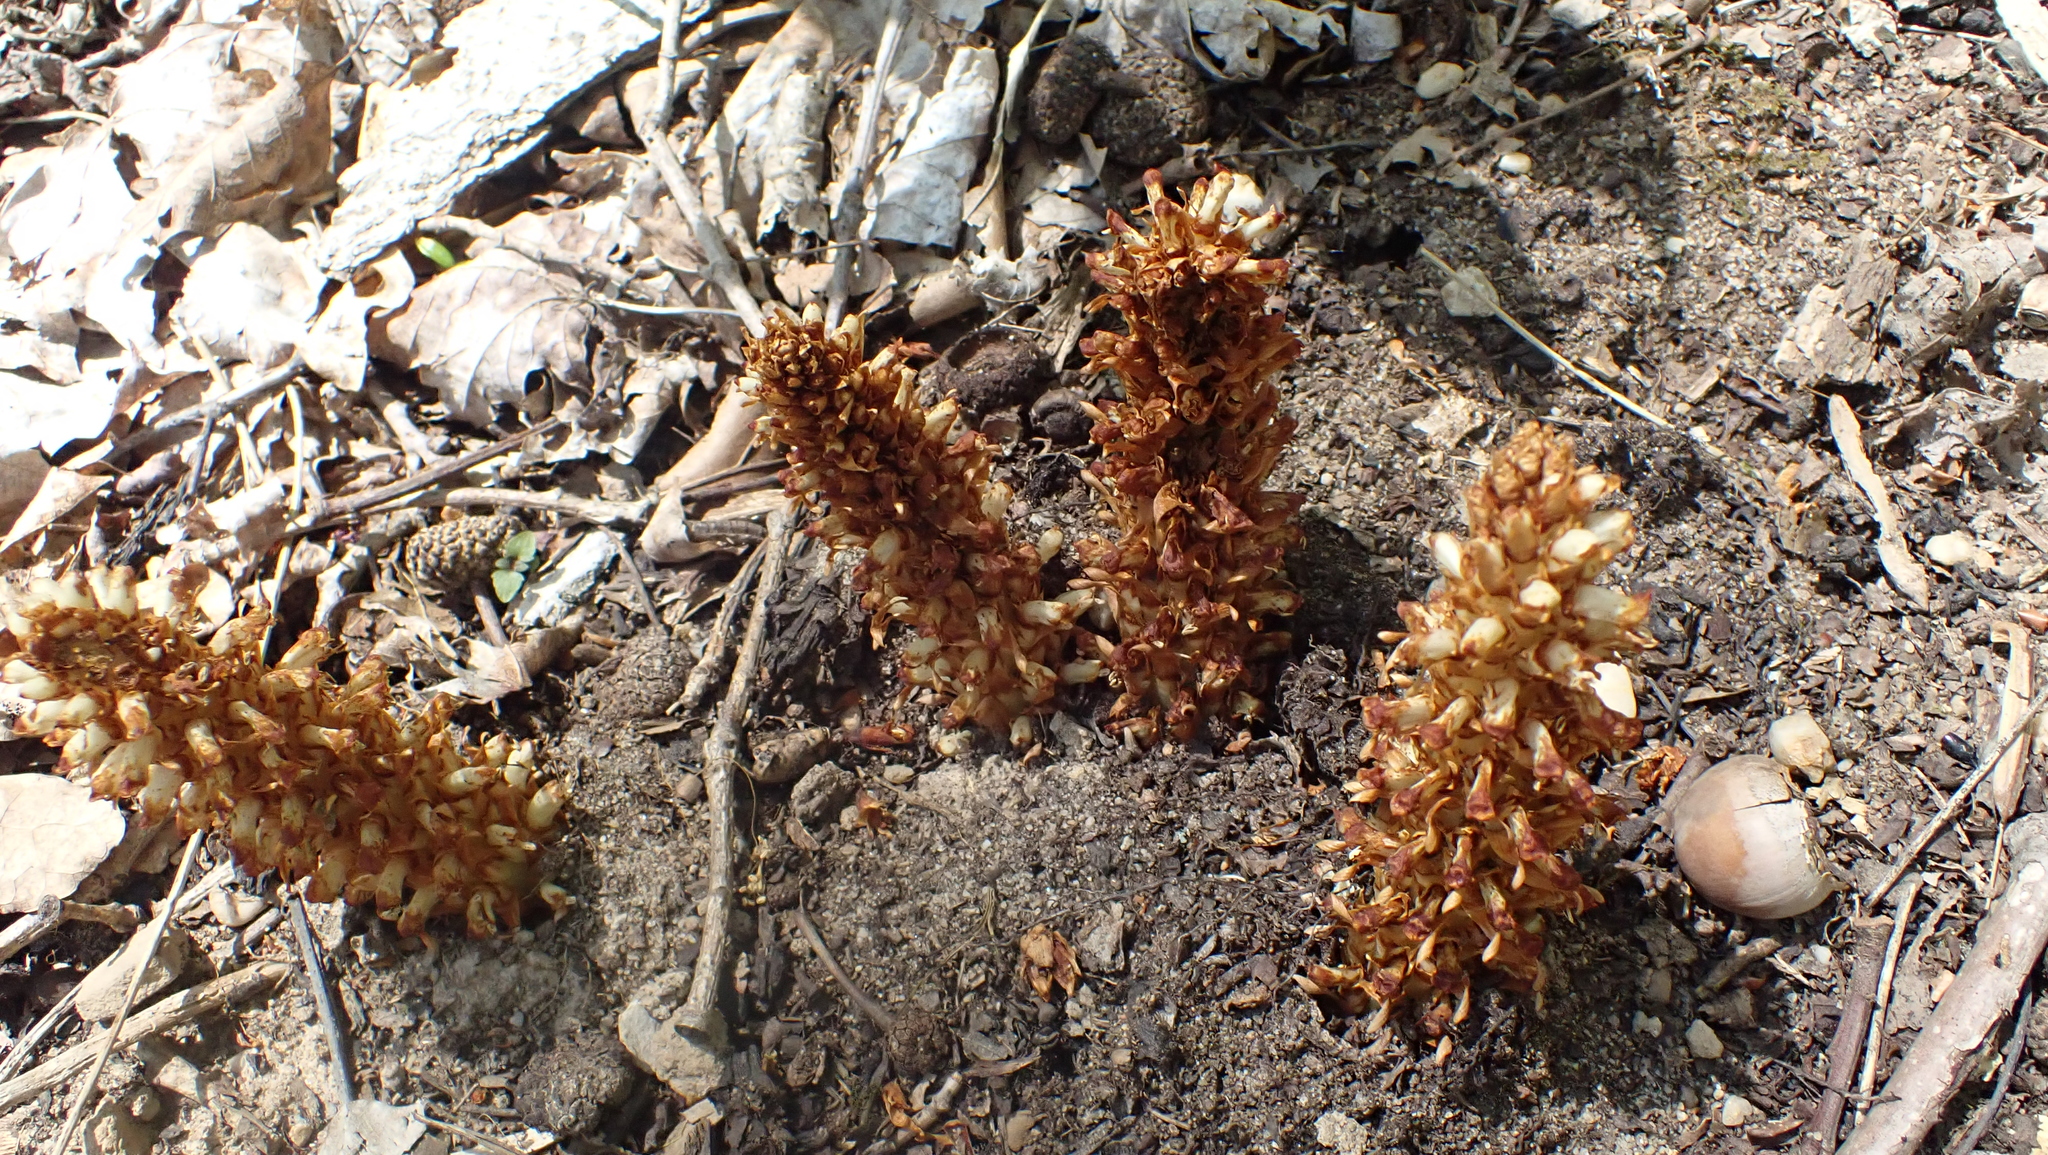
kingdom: Plantae
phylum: Tracheophyta
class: Magnoliopsida
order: Lamiales
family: Orobanchaceae
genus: Conopholis
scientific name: Conopholis americana
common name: American cancer-root
